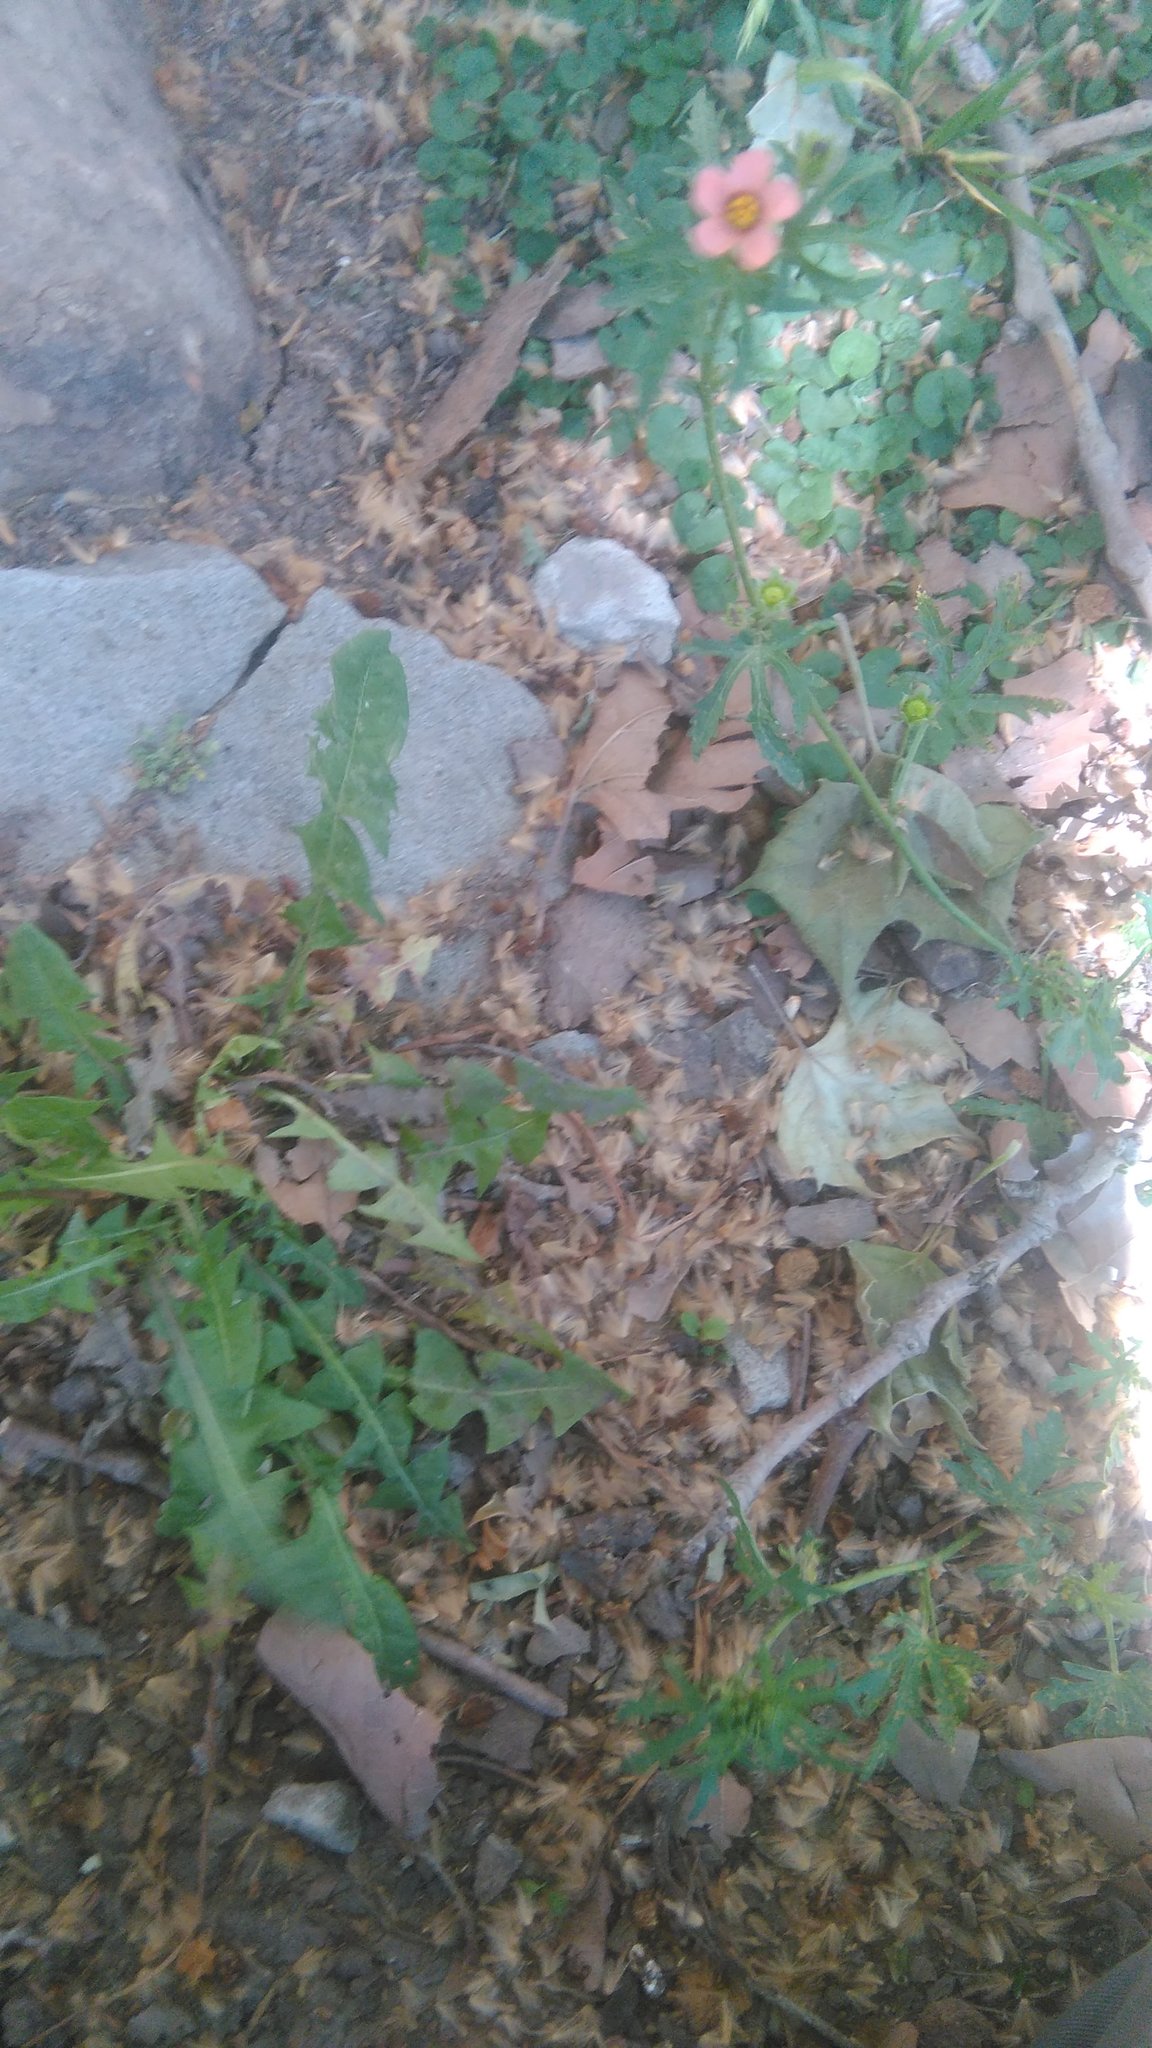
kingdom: Plantae
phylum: Tracheophyta
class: Magnoliopsida
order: Malvales
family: Malvaceae
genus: Modiola
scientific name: Modiola caroliniana
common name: Carolina bristlemallow
